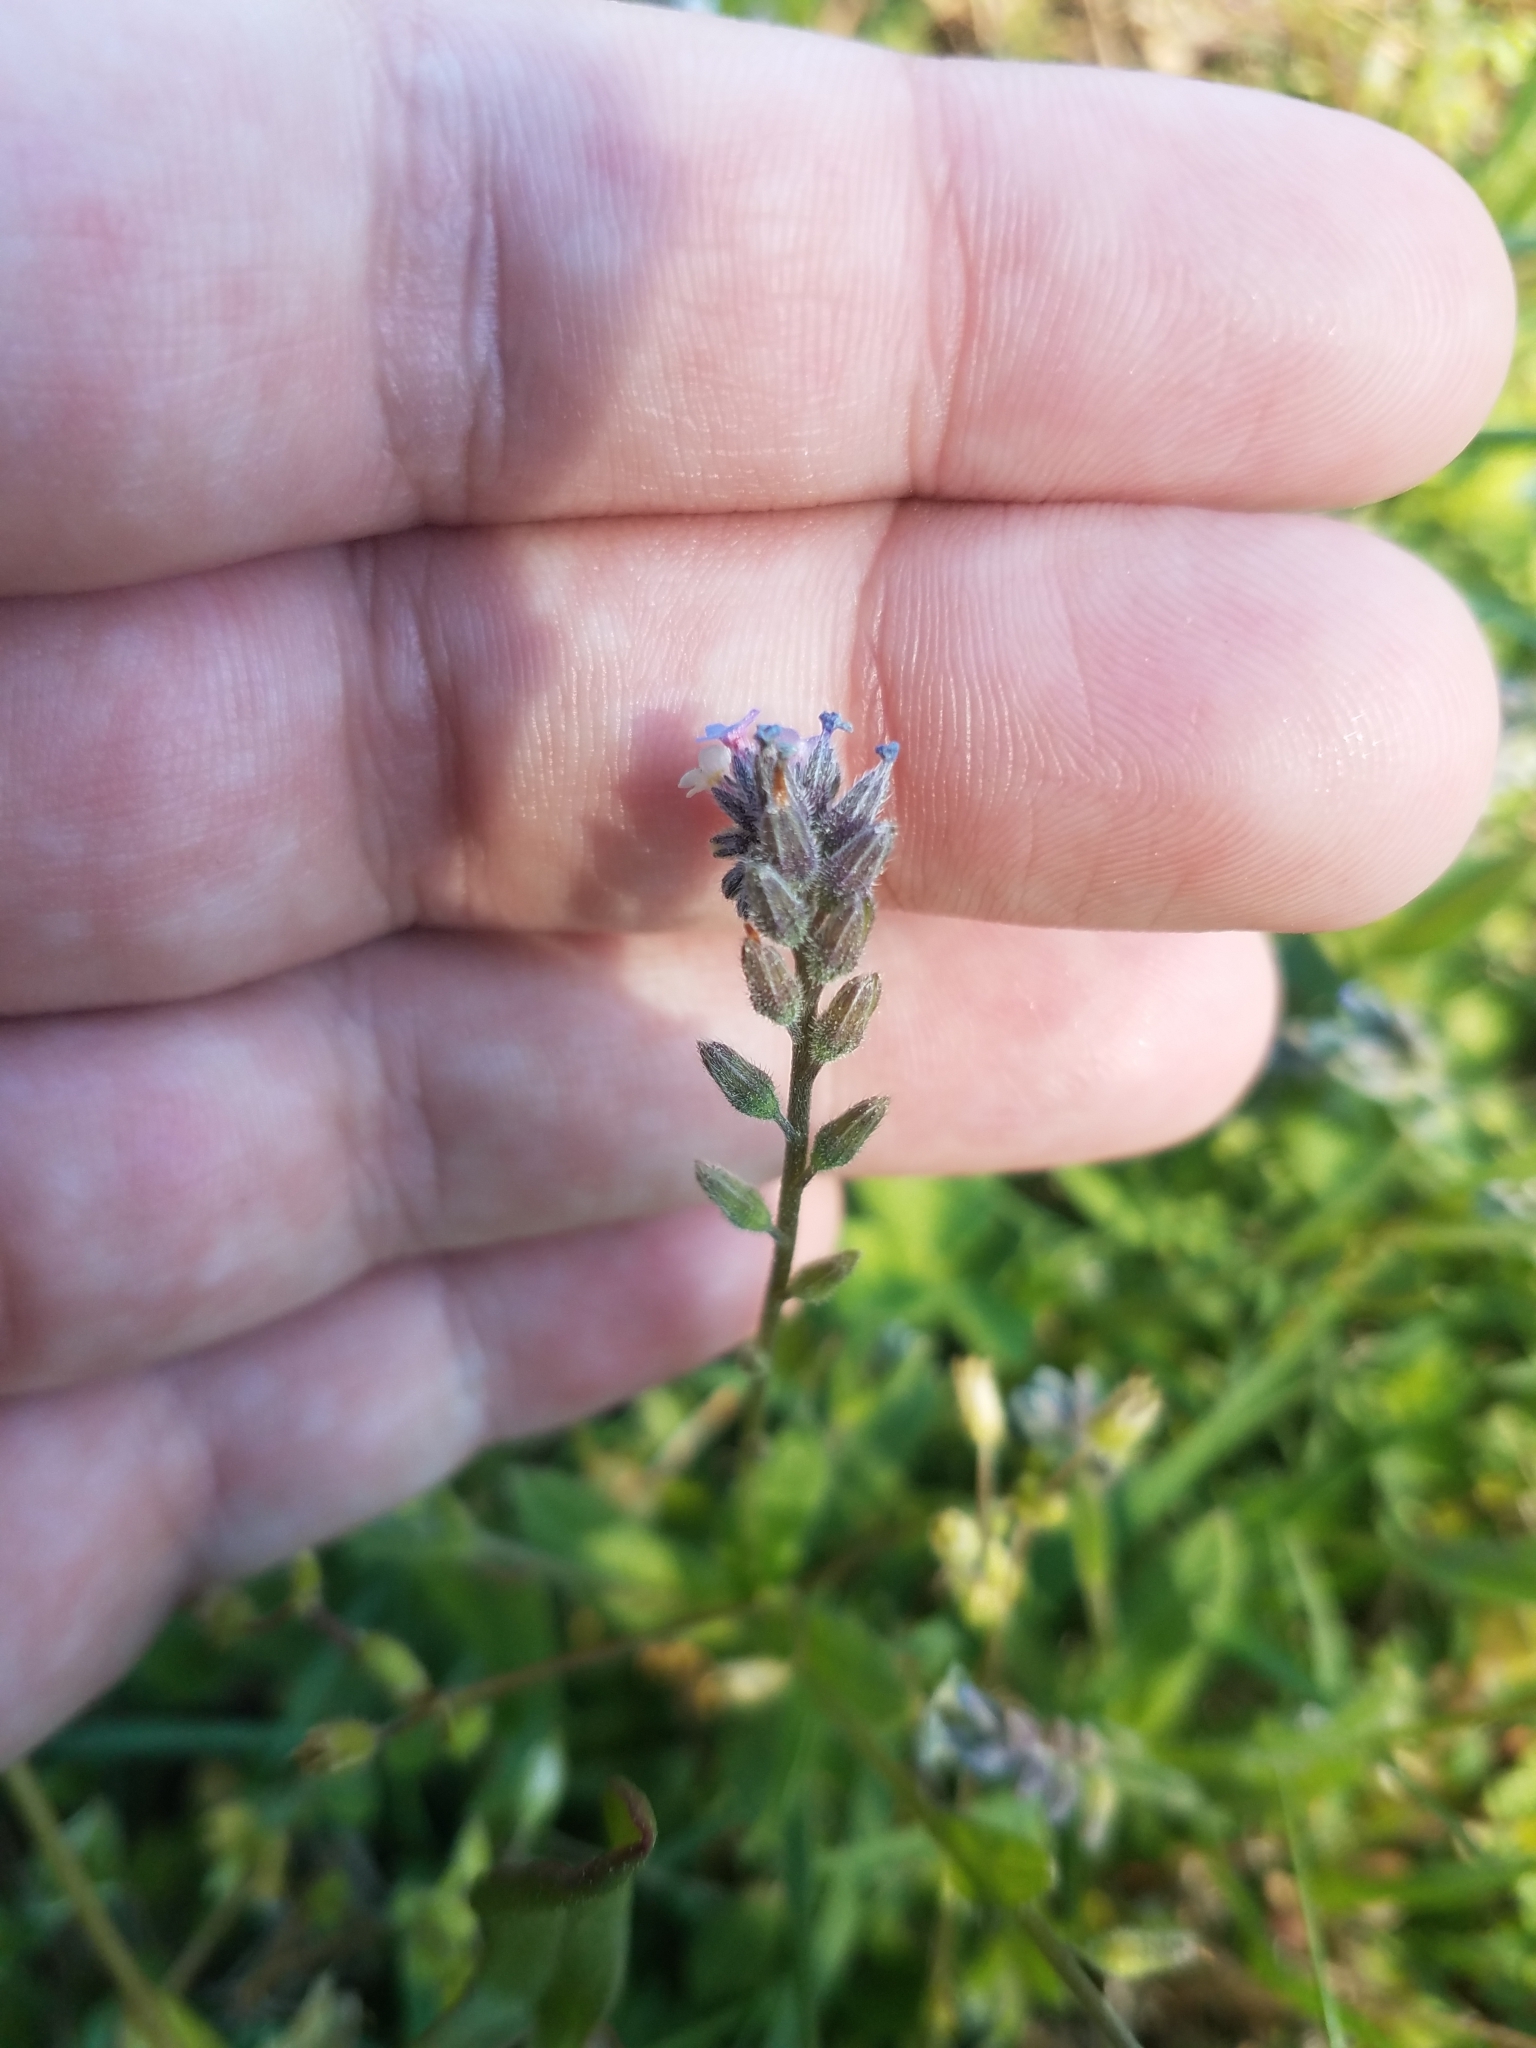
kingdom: Plantae
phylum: Tracheophyta
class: Magnoliopsida
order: Boraginales
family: Boraginaceae
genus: Myosotis
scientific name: Myosotis discolor
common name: Changing forget-me-not
